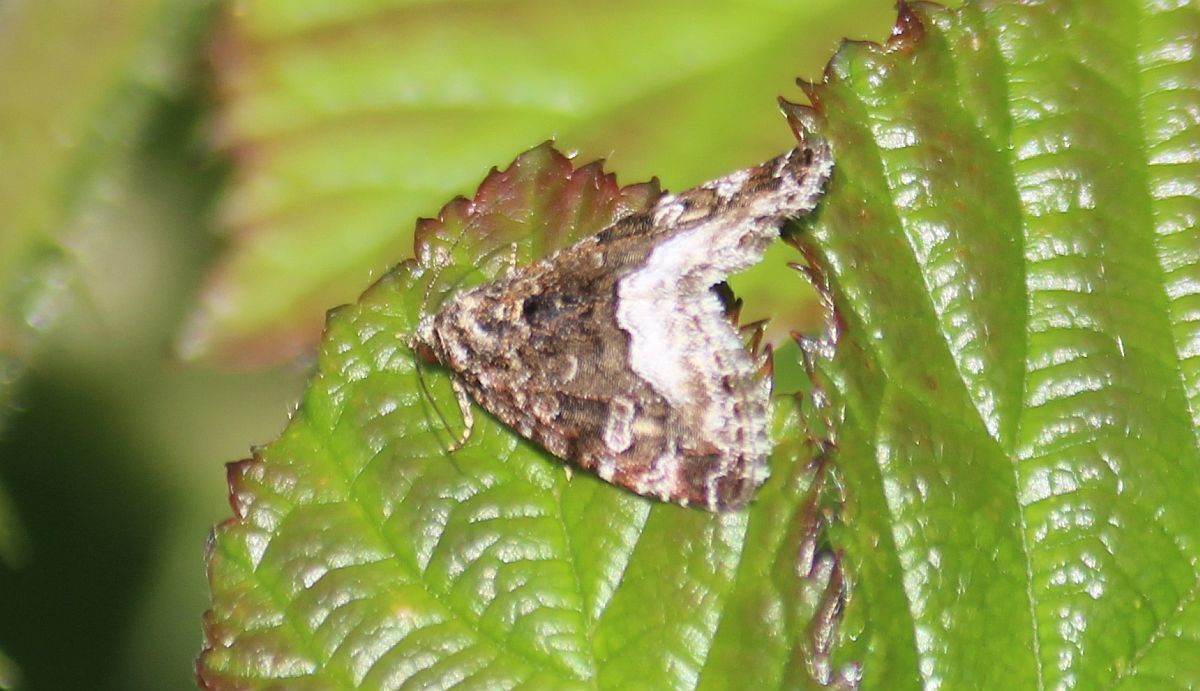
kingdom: Animalia
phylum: Arthropoda
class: Insecta
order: Lepidoptera
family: Noctuidae
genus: Deltote
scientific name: Deltote pygarga
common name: Marbled white spot
